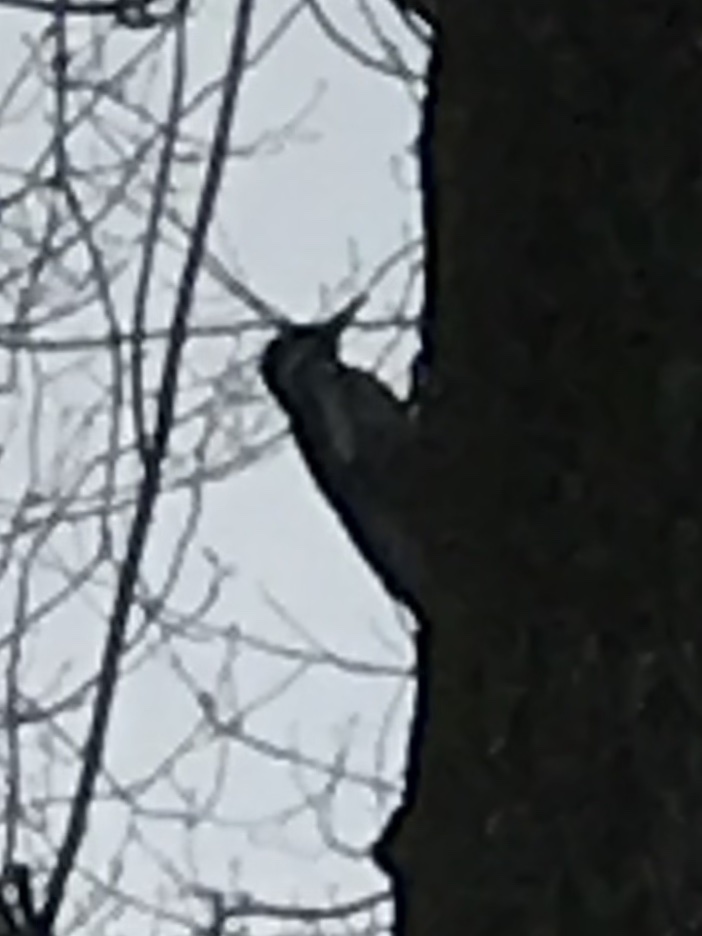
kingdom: Animalia
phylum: Chordata
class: Aves
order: Piciformes
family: Picidae
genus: Sphyrapicus
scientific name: Sphyrapicus varius
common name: Yellow-bellied sapsucker
